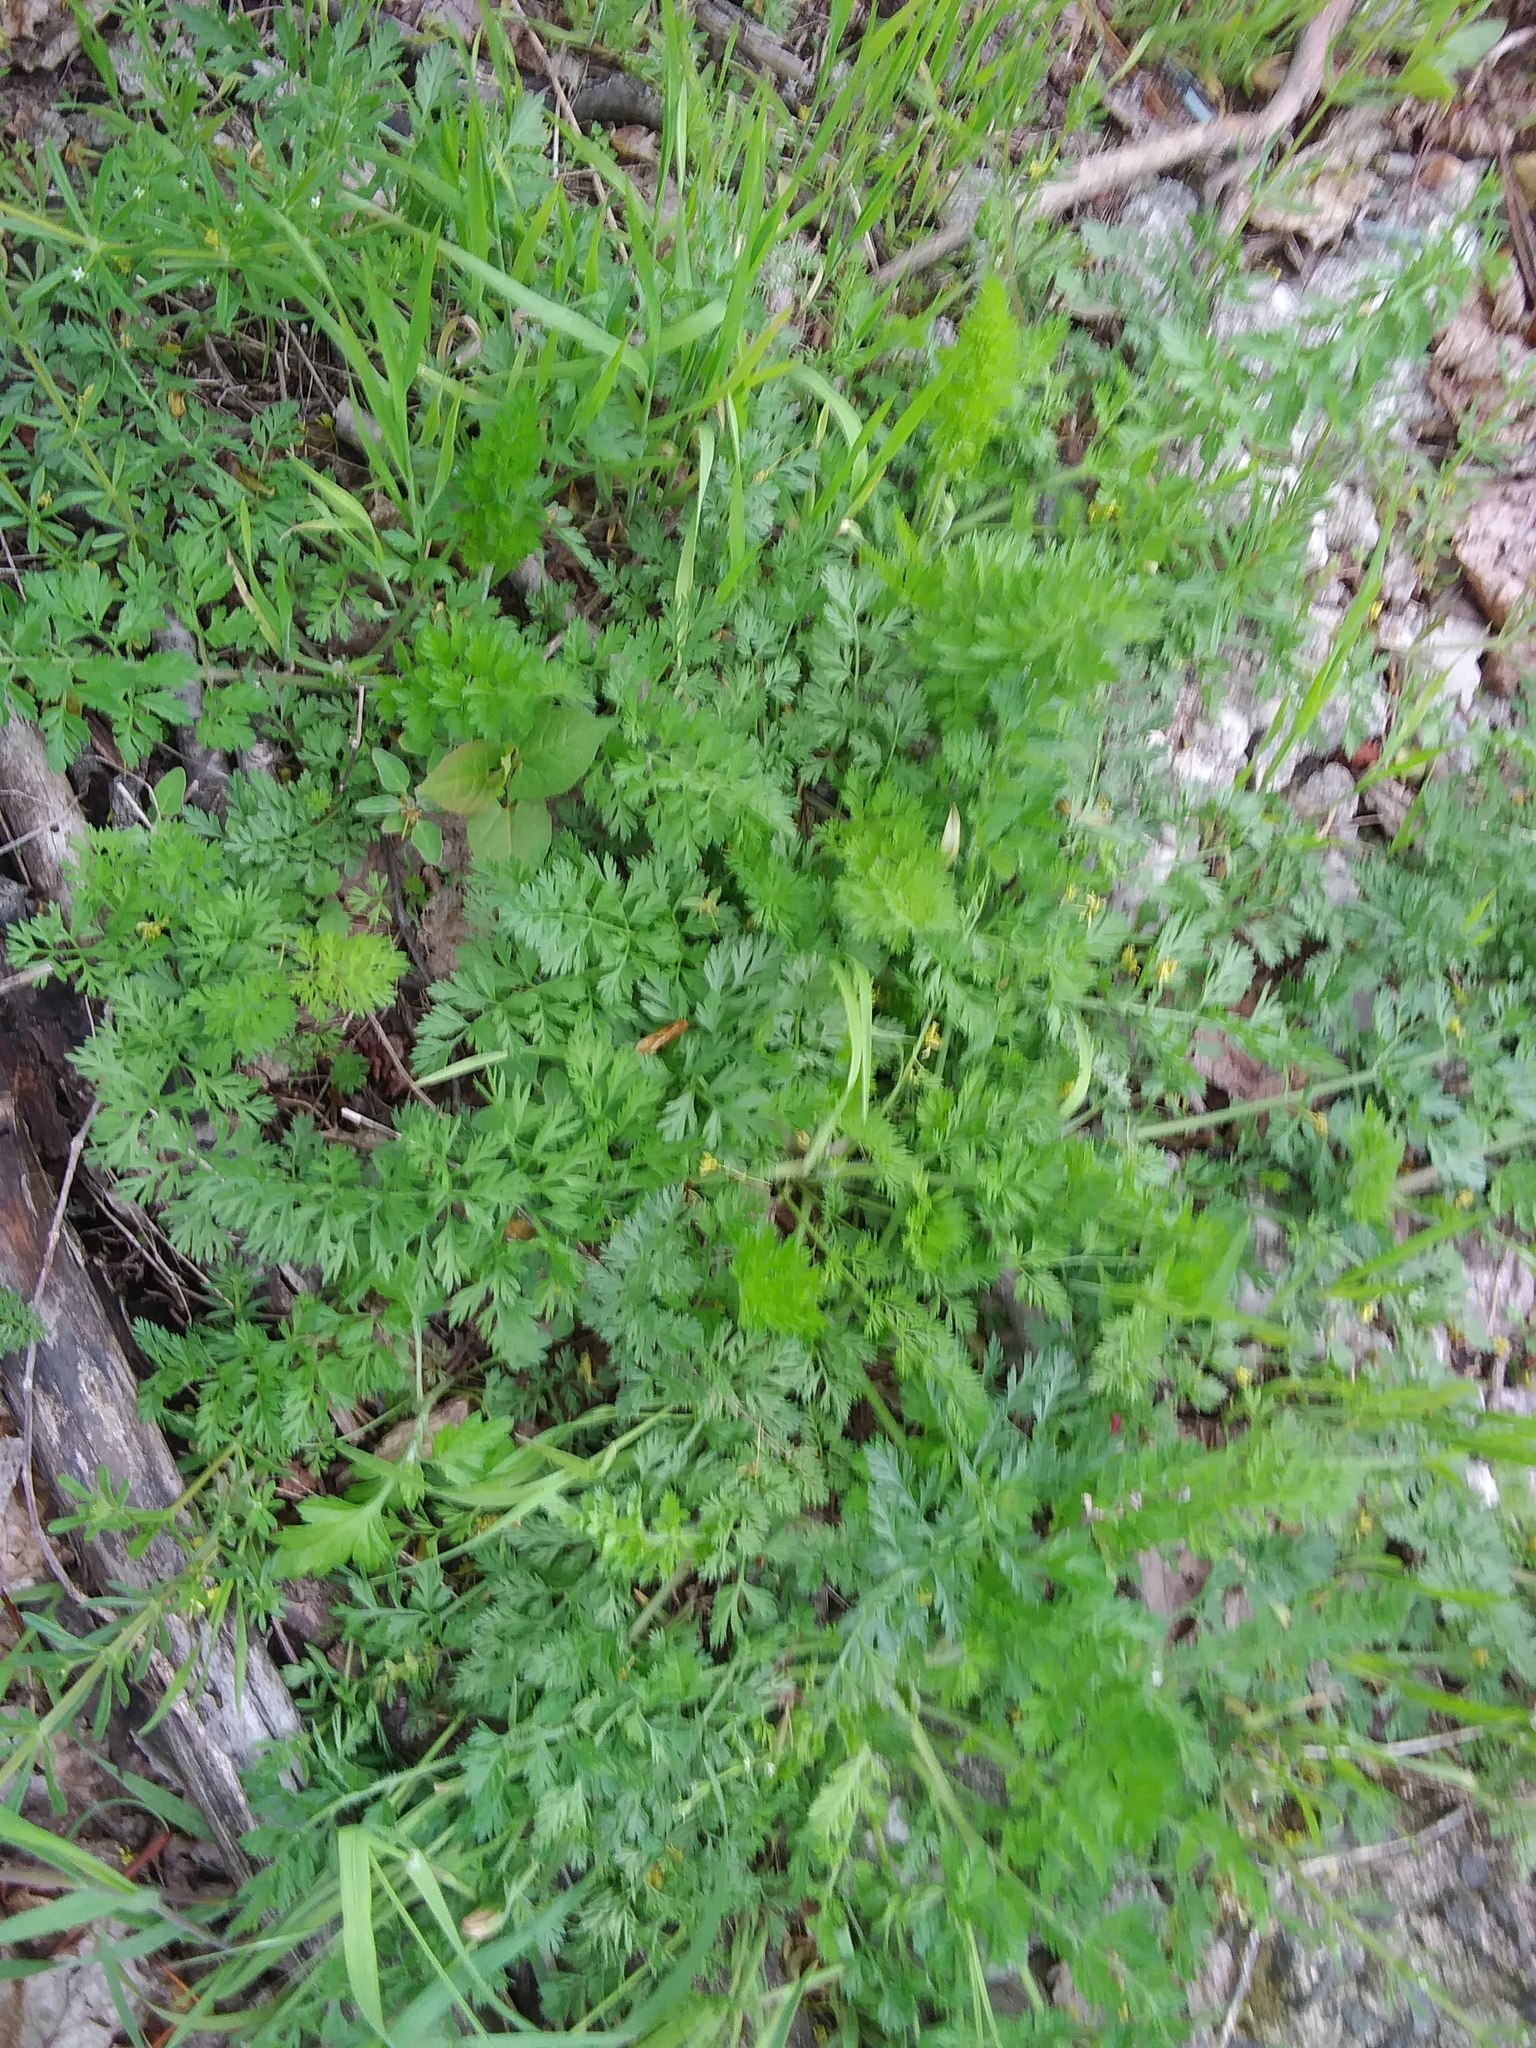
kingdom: Plantae
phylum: Tracheophyta
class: Magnoliopsida
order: Apiales
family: Apiaceae
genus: Daucus
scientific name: Daucus carota
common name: Wild carrot
